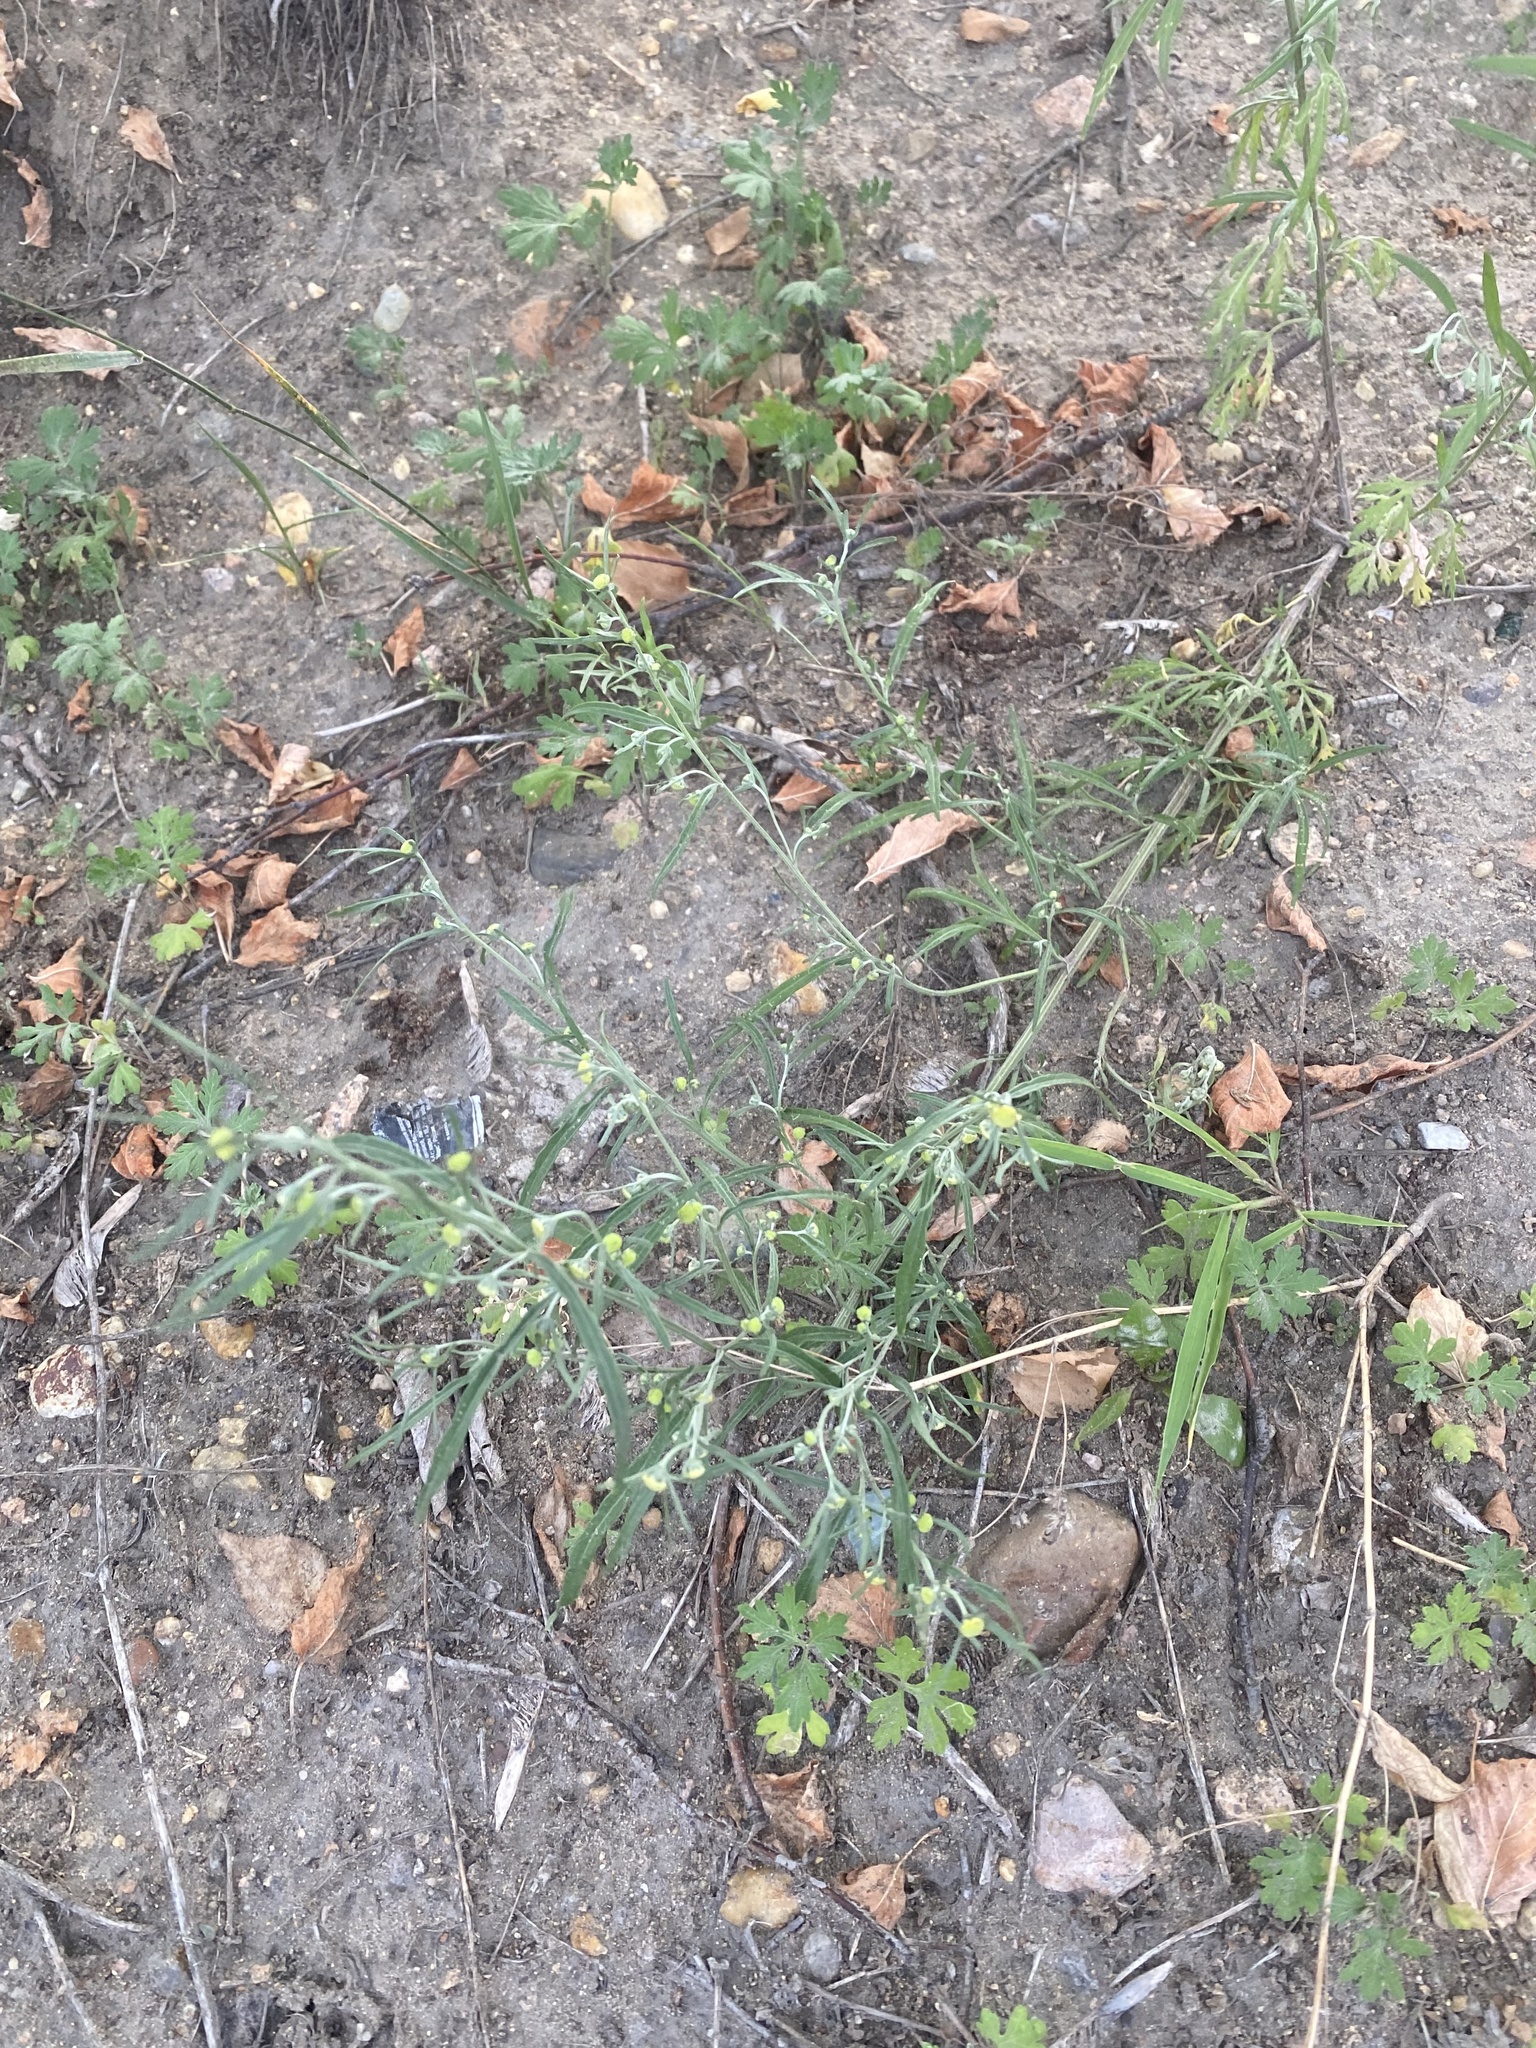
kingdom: Plantae
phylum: Tracheophyta
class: Magnoliopsida
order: Asterales
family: Asteraceae
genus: Artemisia
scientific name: Artemisia sieversiana
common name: Sieversian wormwood
